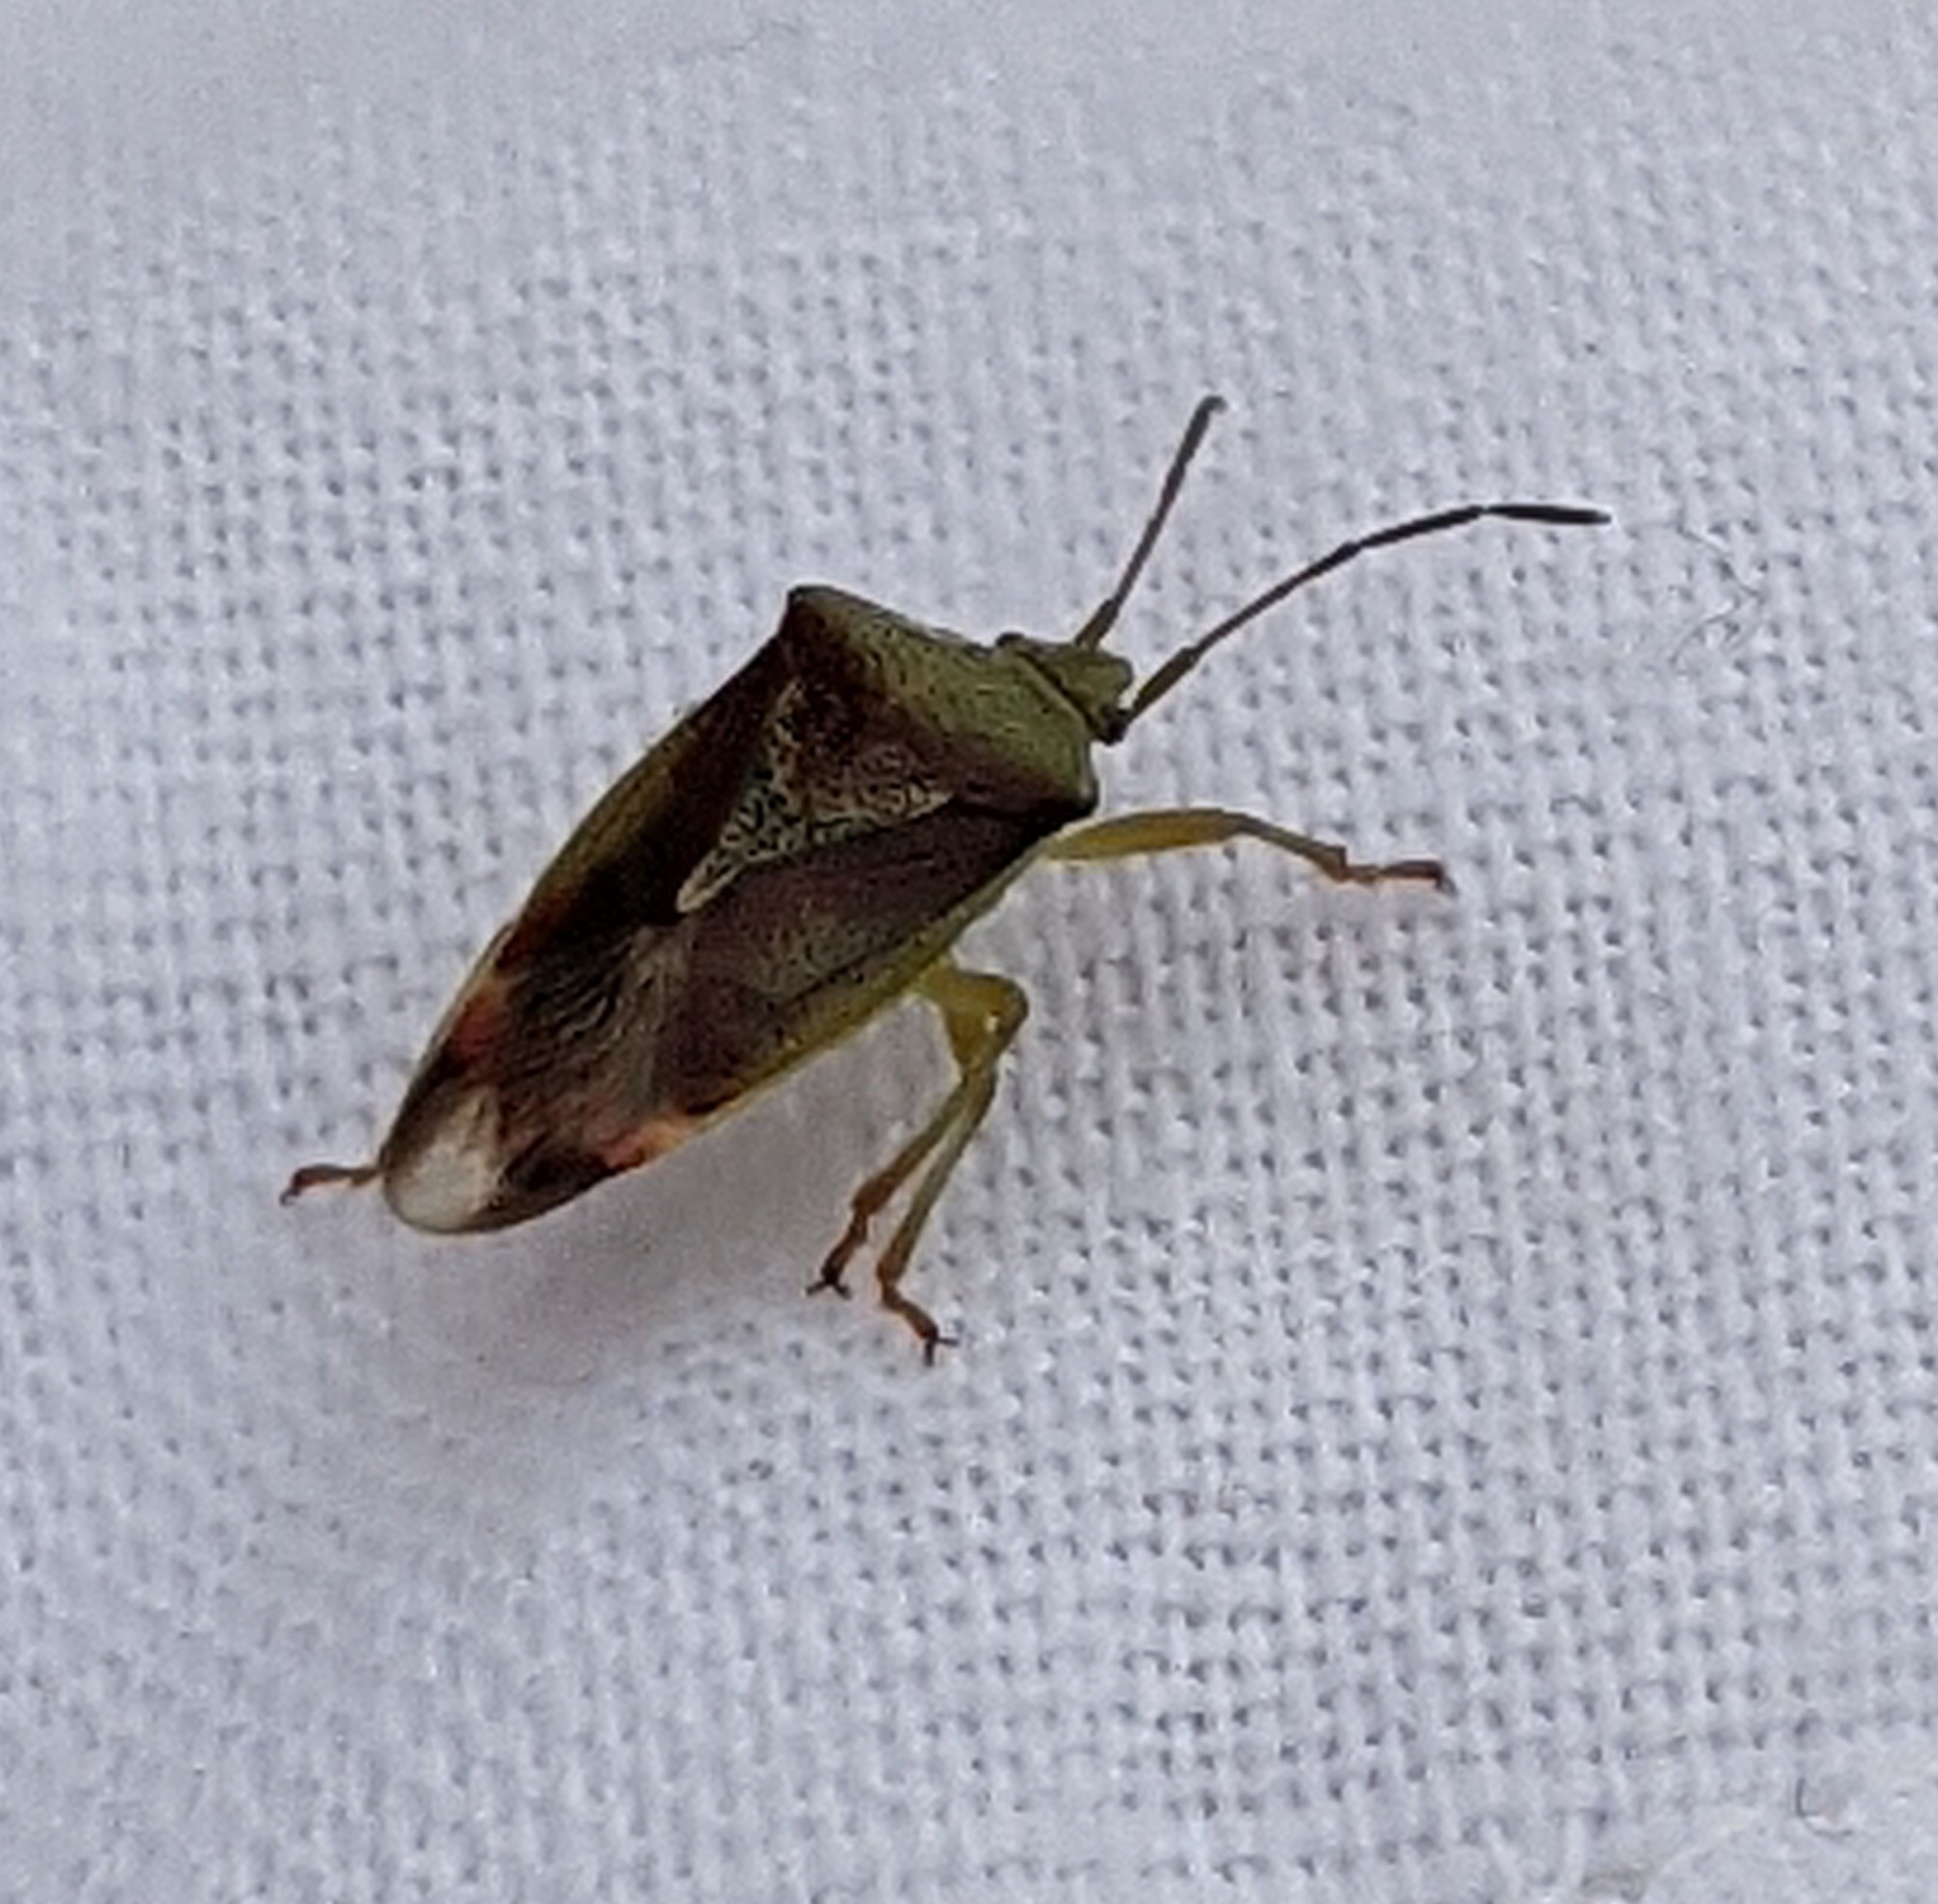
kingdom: Animalia
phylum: Arthropoda
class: Insecta
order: Hemiptera
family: Acanthosomatidae
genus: Elasmostethus
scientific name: Elasmostethus interstinctus
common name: Birch shieldbug
